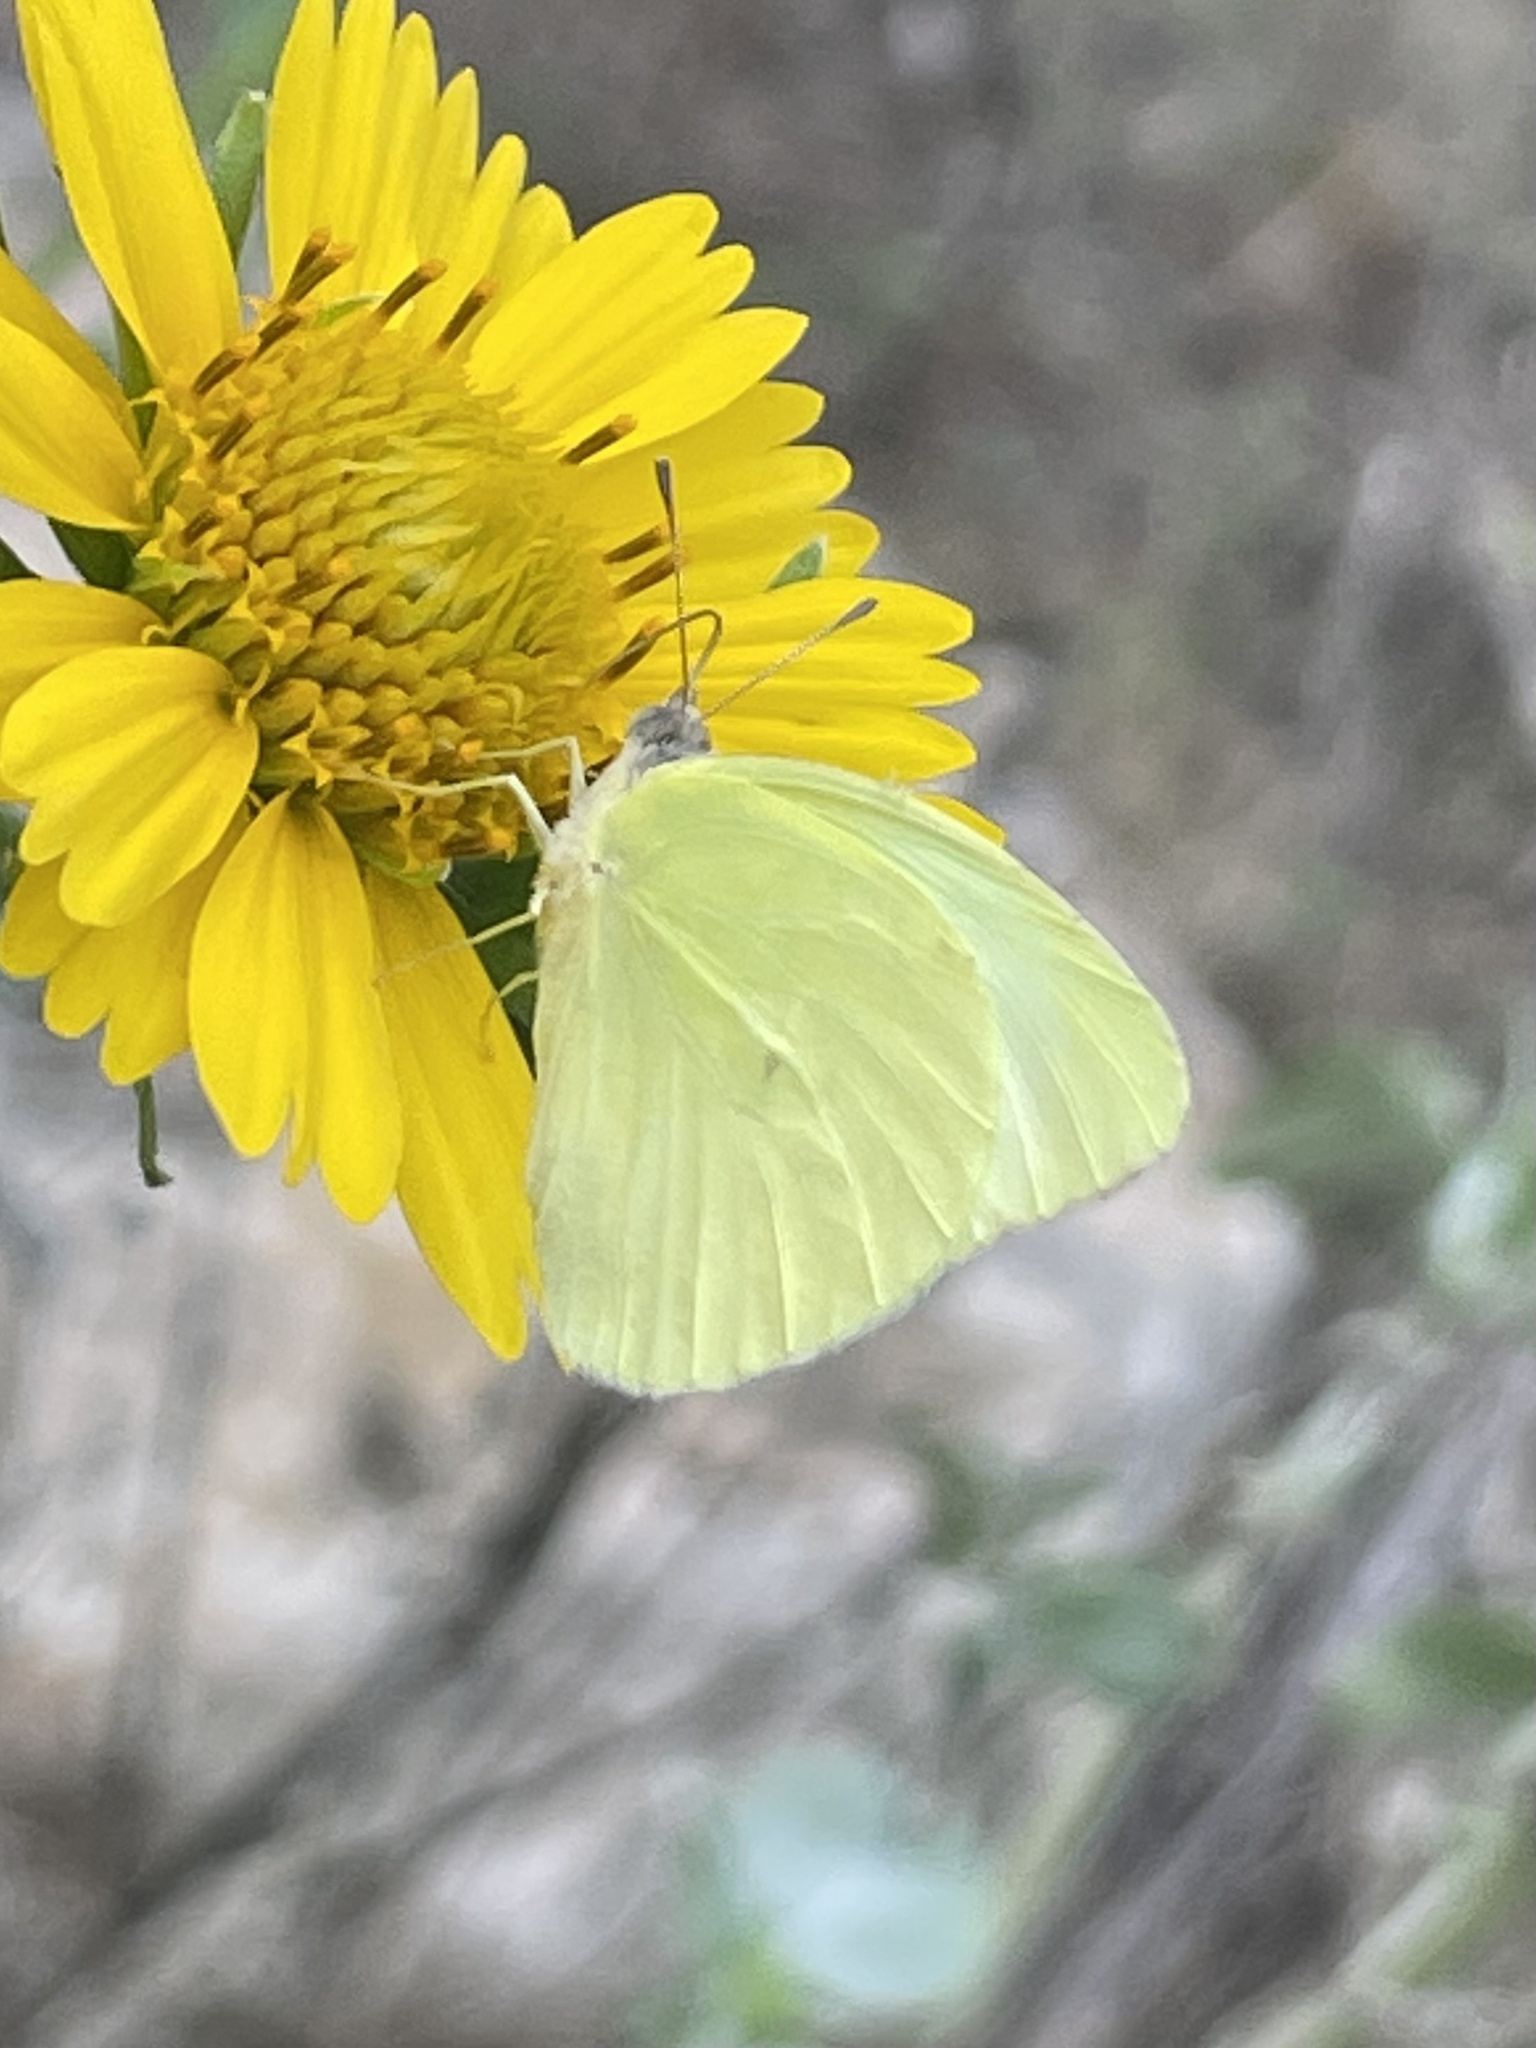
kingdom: Animalia
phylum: Arthropoda
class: Insecta
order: Lepidoptera
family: Pieridae
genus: Kricogonia
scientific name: Kricogonia lyside
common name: Guayacan sulphur,
